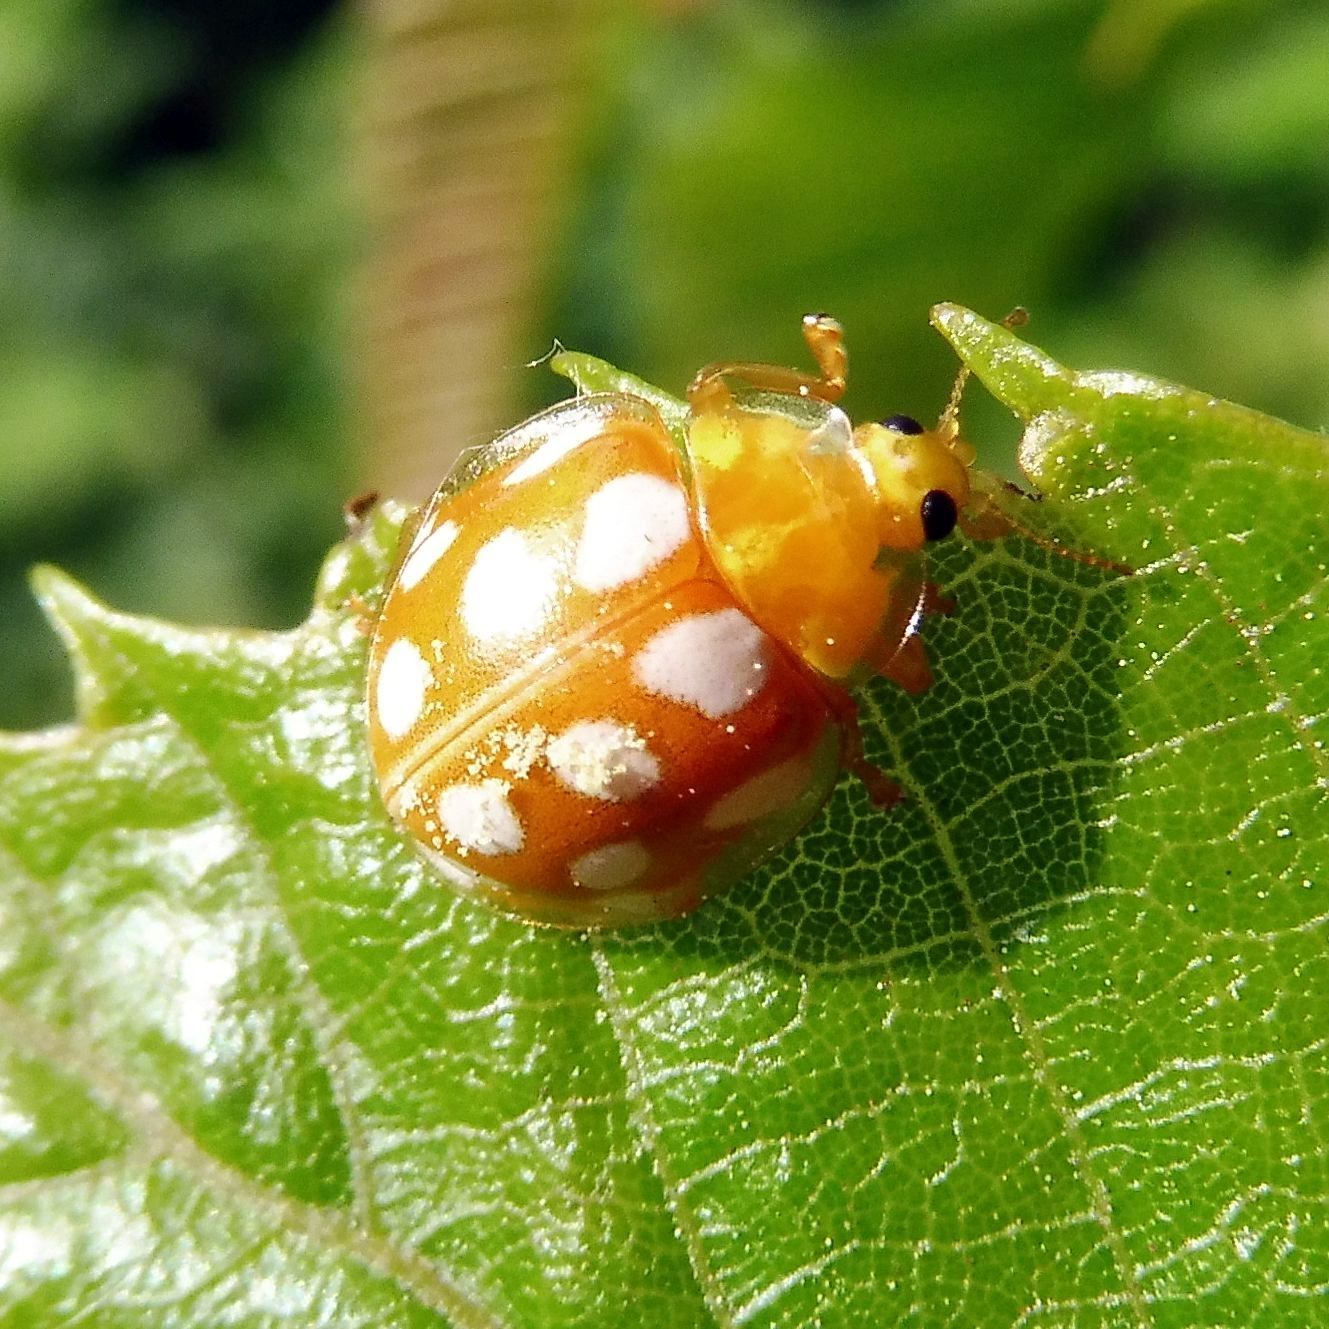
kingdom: Animalia
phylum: Arthropoda
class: Insecta
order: Coleoptera
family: Coccinellidae
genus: Halyzia
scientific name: Halyzia sedecimguttata
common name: Orange ladybird
